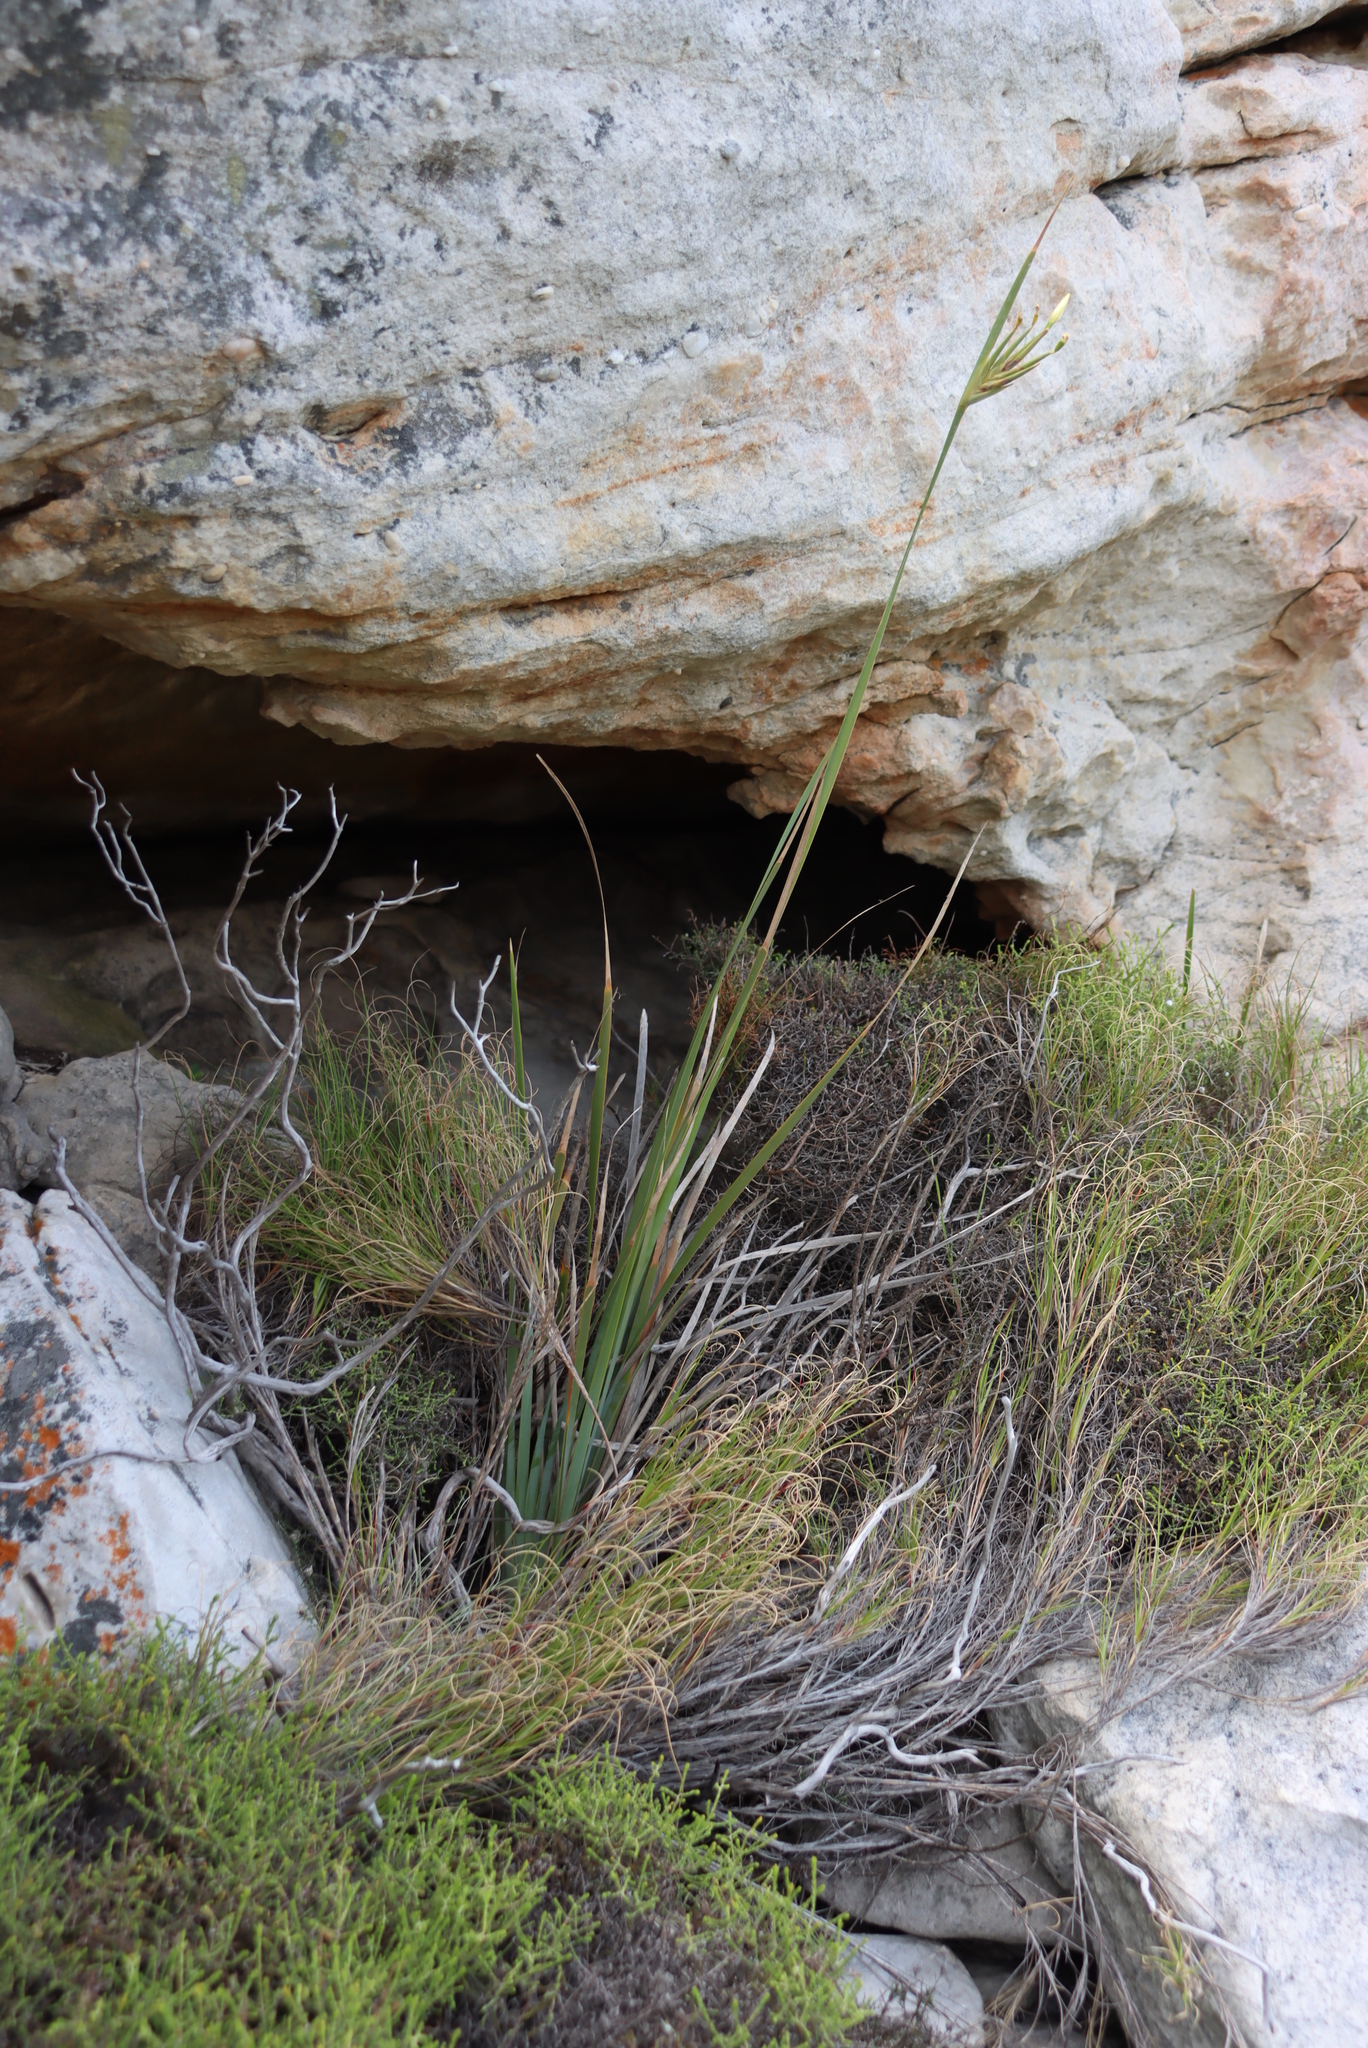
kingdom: Plantae
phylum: Tracheophyta
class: Liliopsida
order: Asparagales
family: Iridaceae
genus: Bobartia
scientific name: Bobartia gladiata
